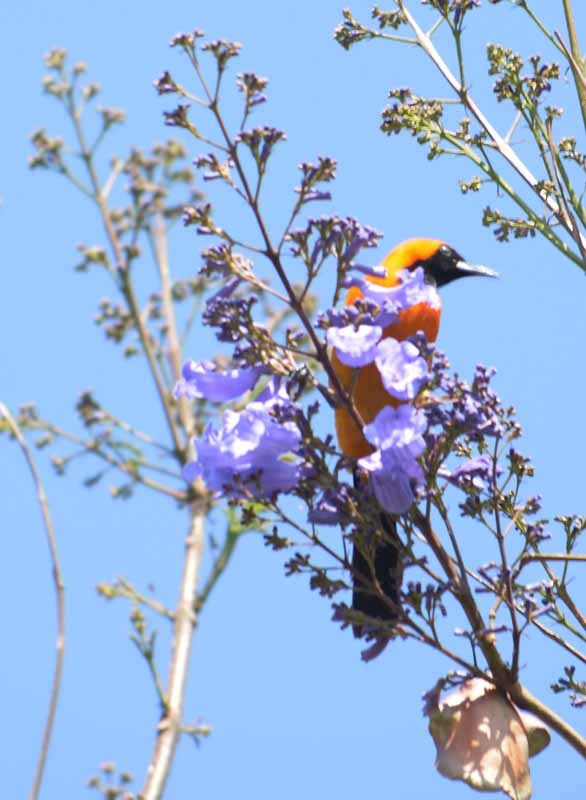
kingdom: Animalia
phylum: Chordata
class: Aves
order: Passeriformes
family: Icteridae
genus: Icterus
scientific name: Icterus cucullatus
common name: Hooded oriole
